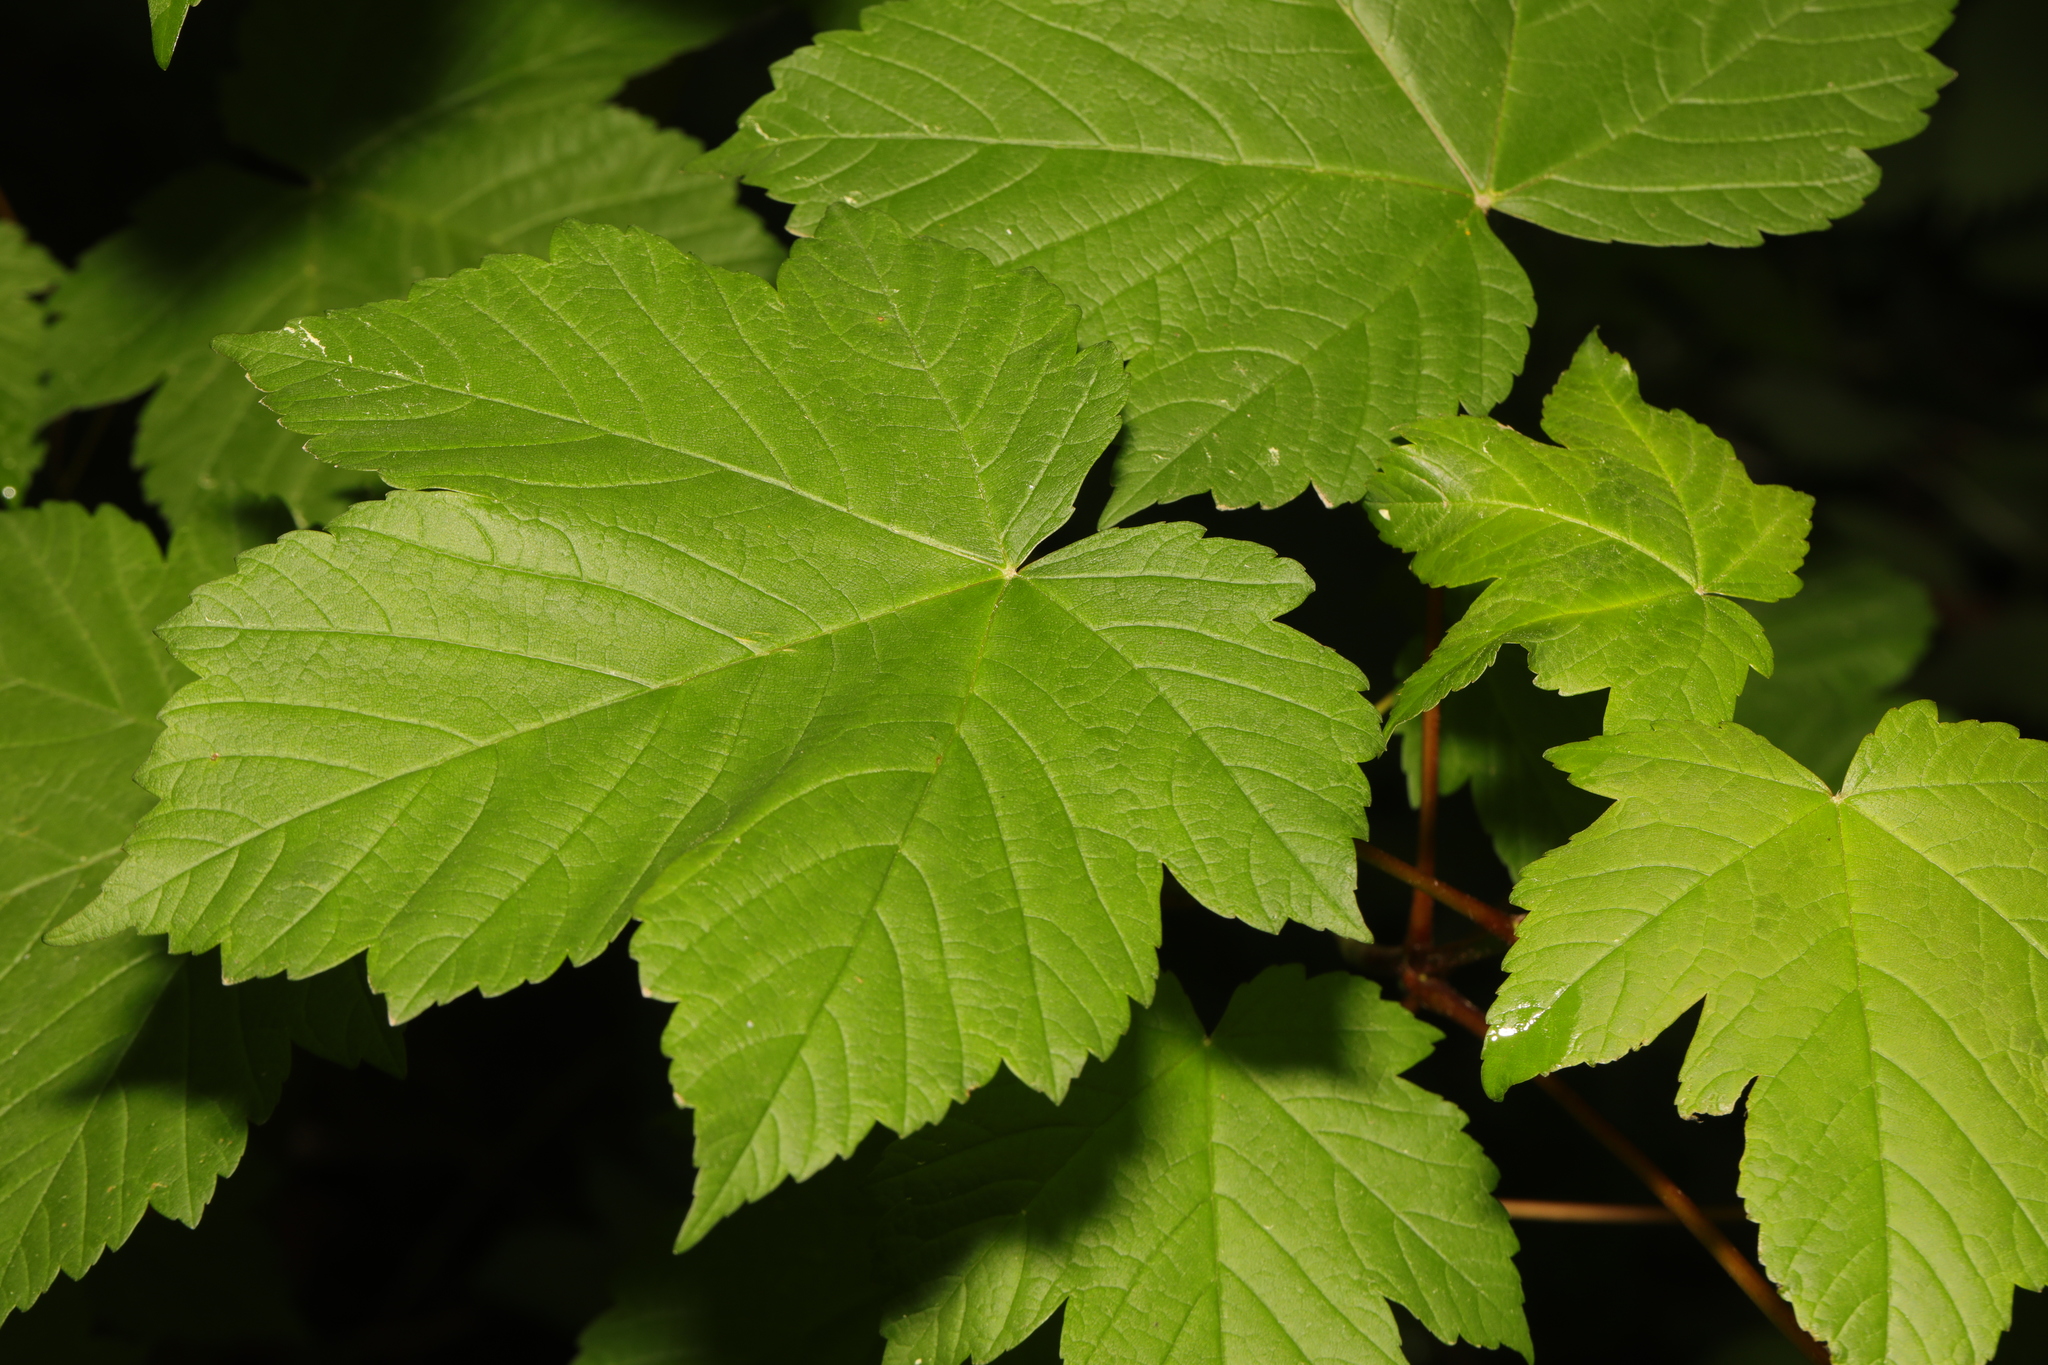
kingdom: Plantae
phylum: Tracheophyta
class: Magnoliopsida
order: Sapindales
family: Sapindaceae
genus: Acer
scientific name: Acer pseudoplatanus
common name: Sycamore
